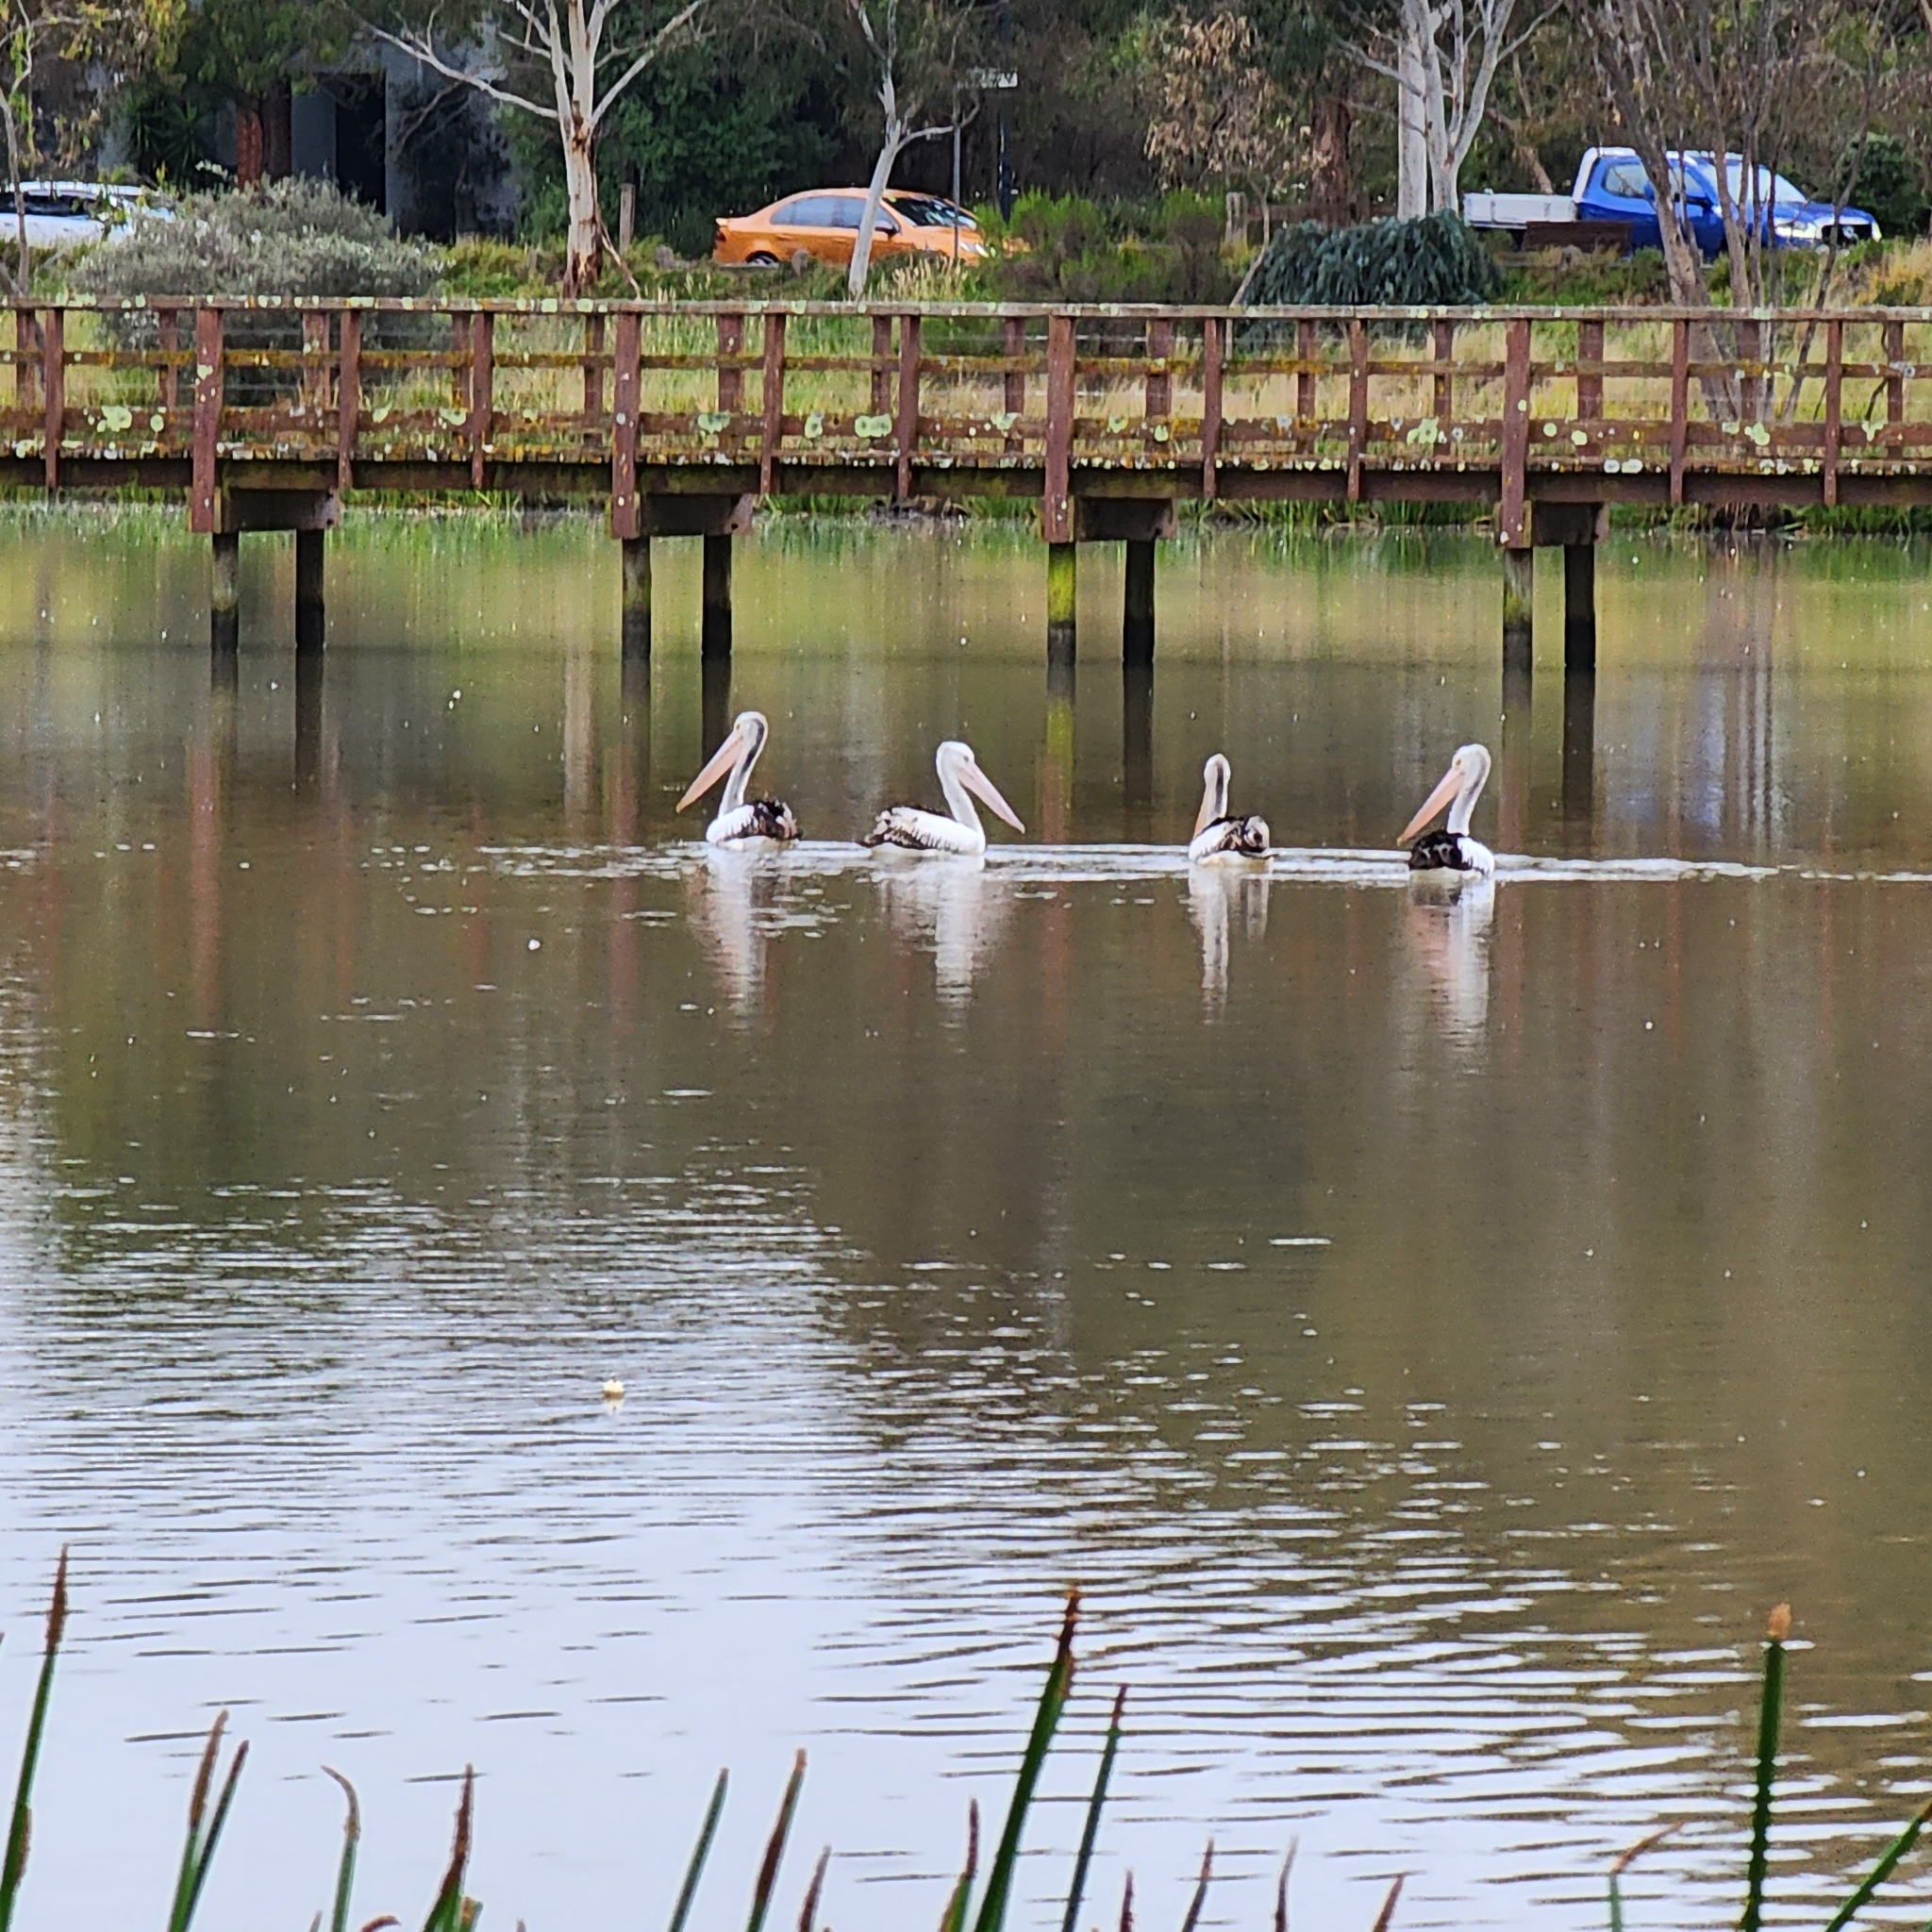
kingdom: Animalia
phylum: Chordata
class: Aves
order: Pelecaniformes
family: Pelecanidae
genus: Pelecanus
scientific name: Pelecanus conspicillatus
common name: Australian pelican
